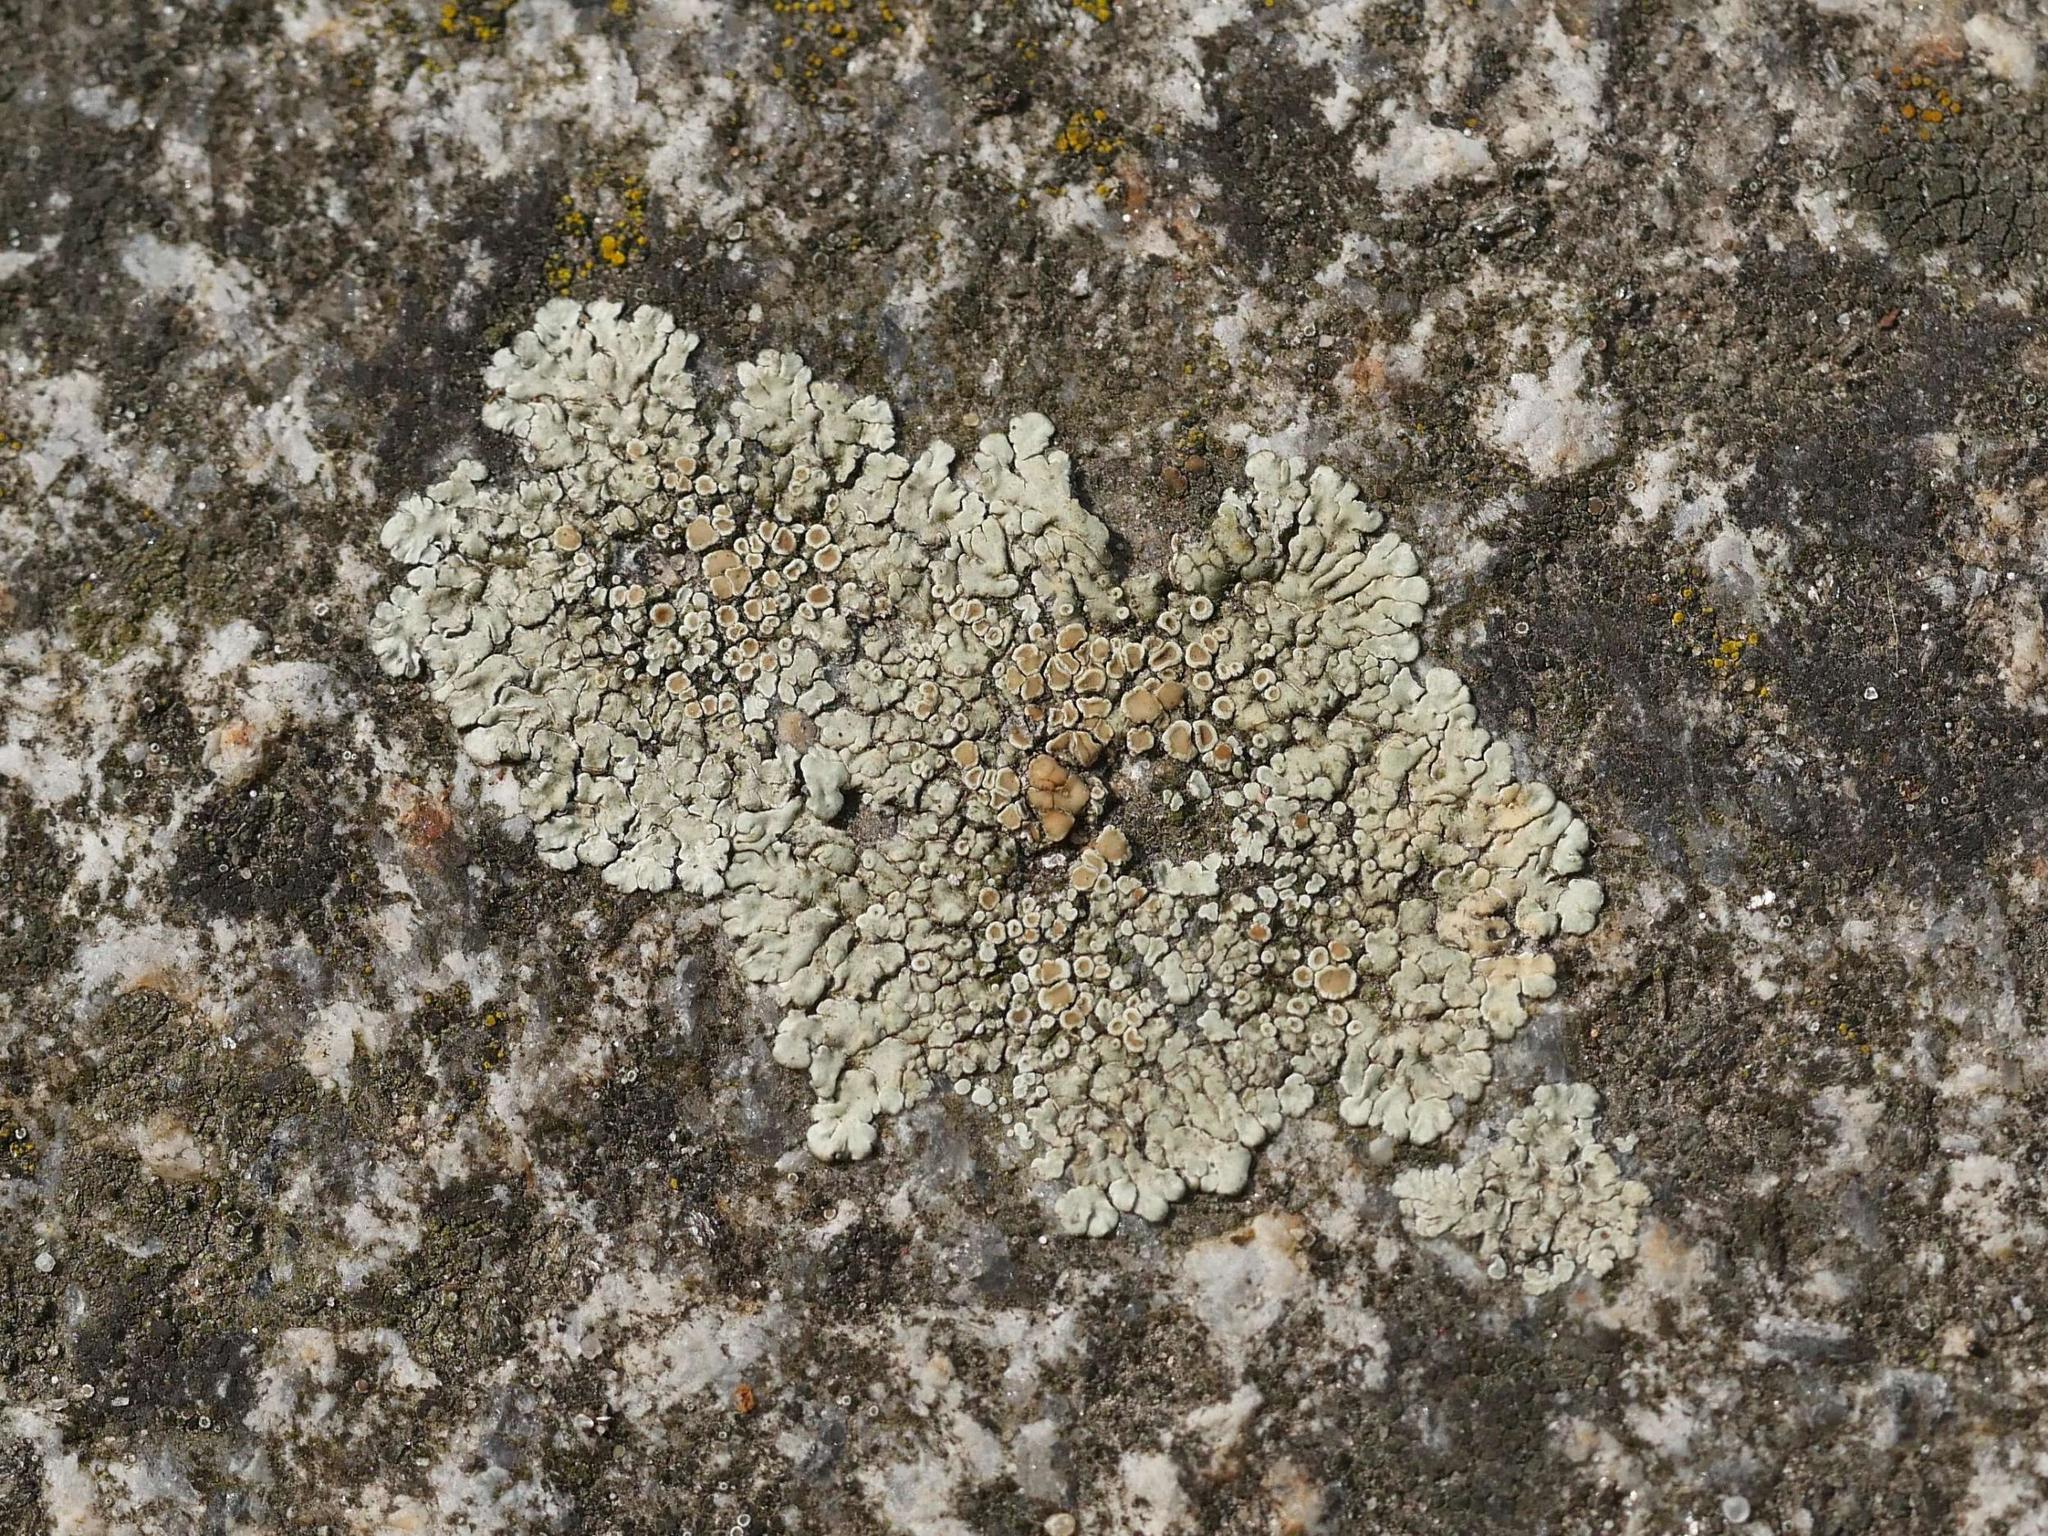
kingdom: Fungi
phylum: Ascomycota
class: Lecanoromycetes
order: Lecanorales
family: Lecanoraceae
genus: Protoparmeliopsis
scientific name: Protoparmeliopsis muralis
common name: Stonewall rim lichen
